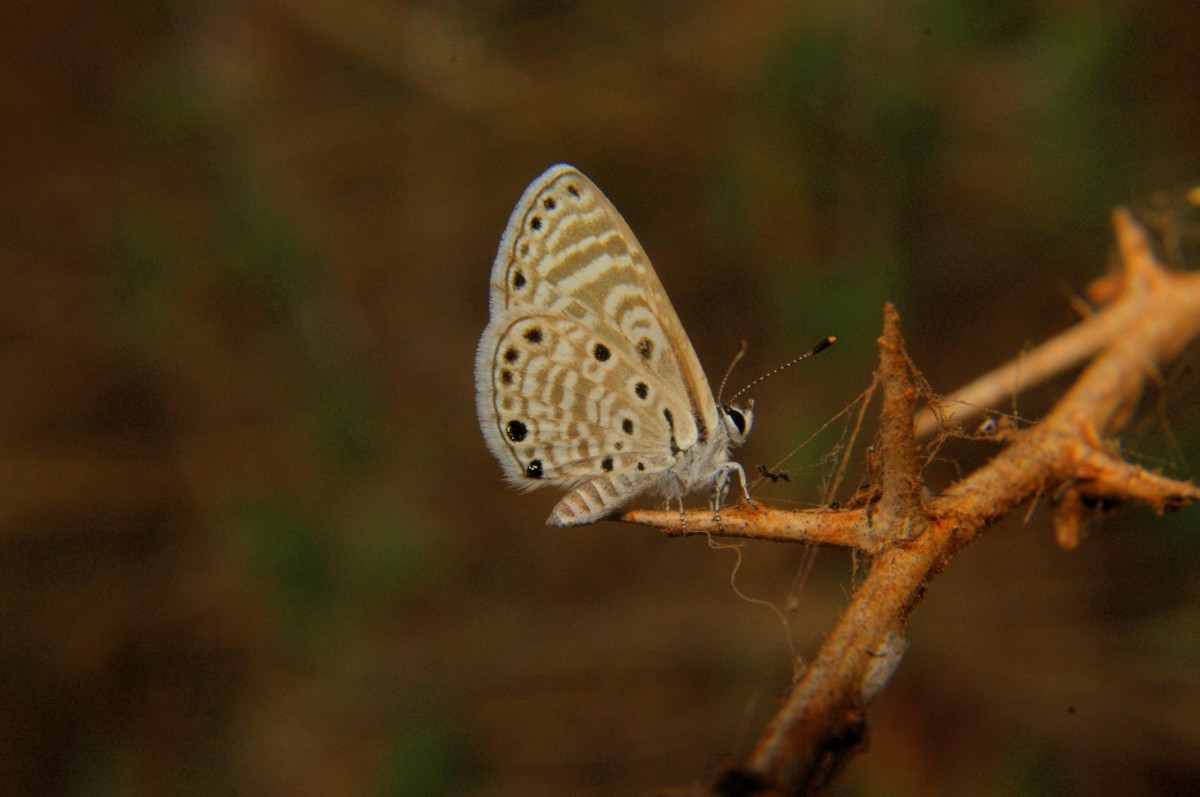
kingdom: Animalia
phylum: Arthropoda
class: Insecta
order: Lepidoptera
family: Lycaenidae
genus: Azanus
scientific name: Azanus jesous
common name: African babul blue
